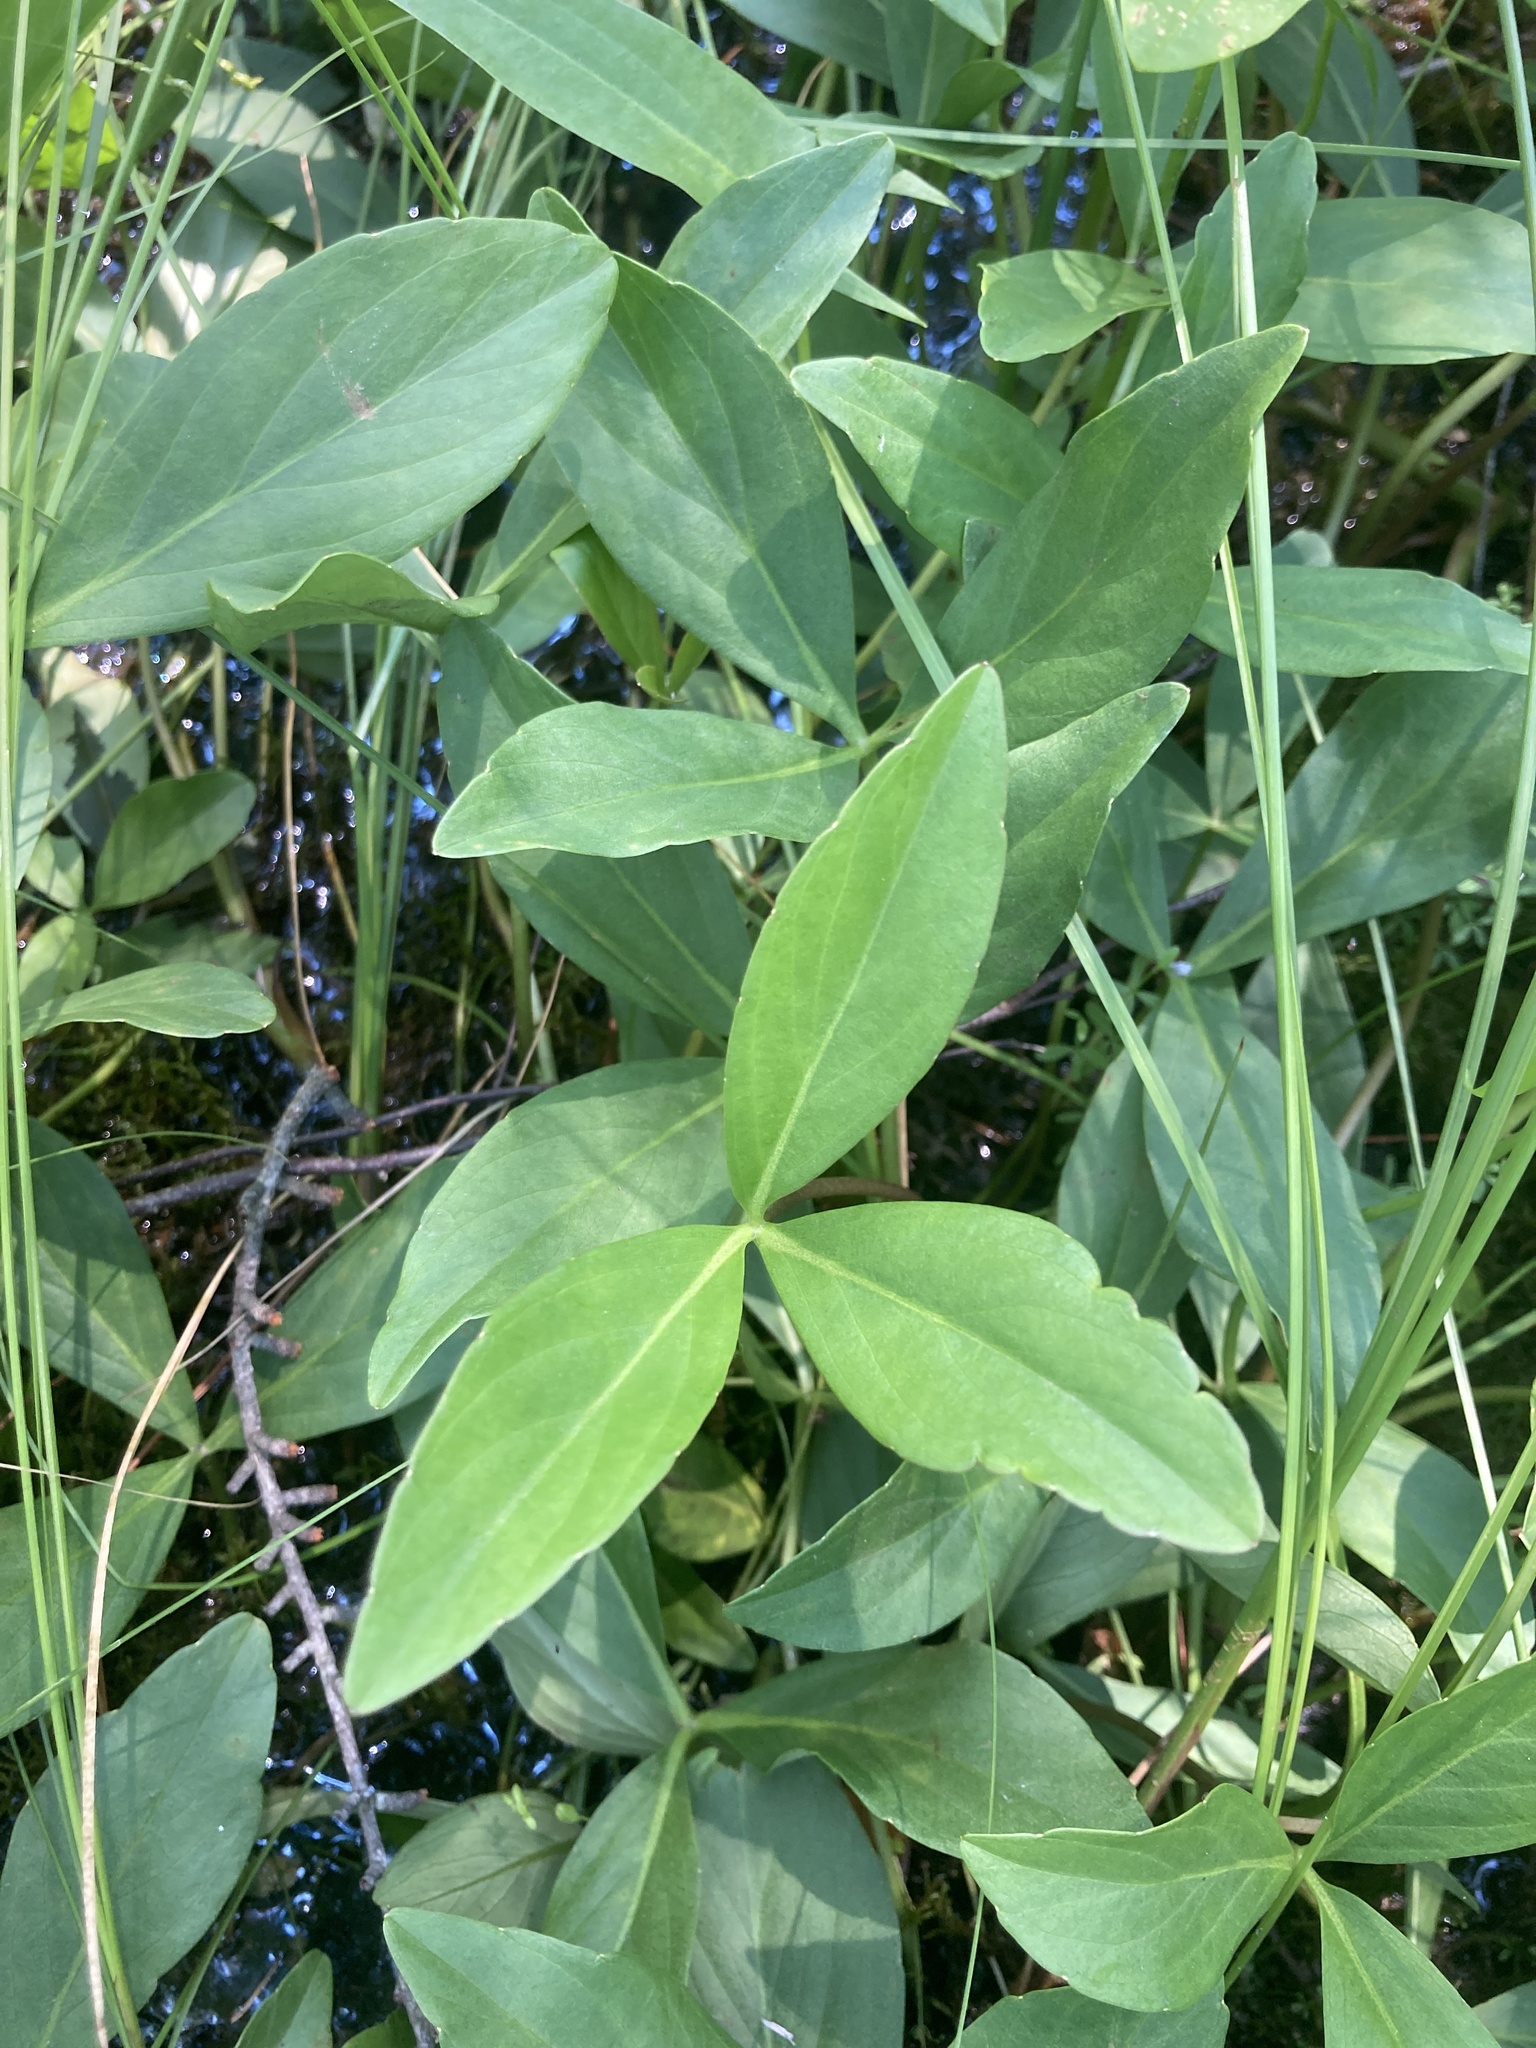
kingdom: Plantae
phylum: Tracheophyta
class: Magnoliopsida
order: Asterales
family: Menyanthaceae
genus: Menyanthes
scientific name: Menyanthes trifoliata
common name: Bogbean
